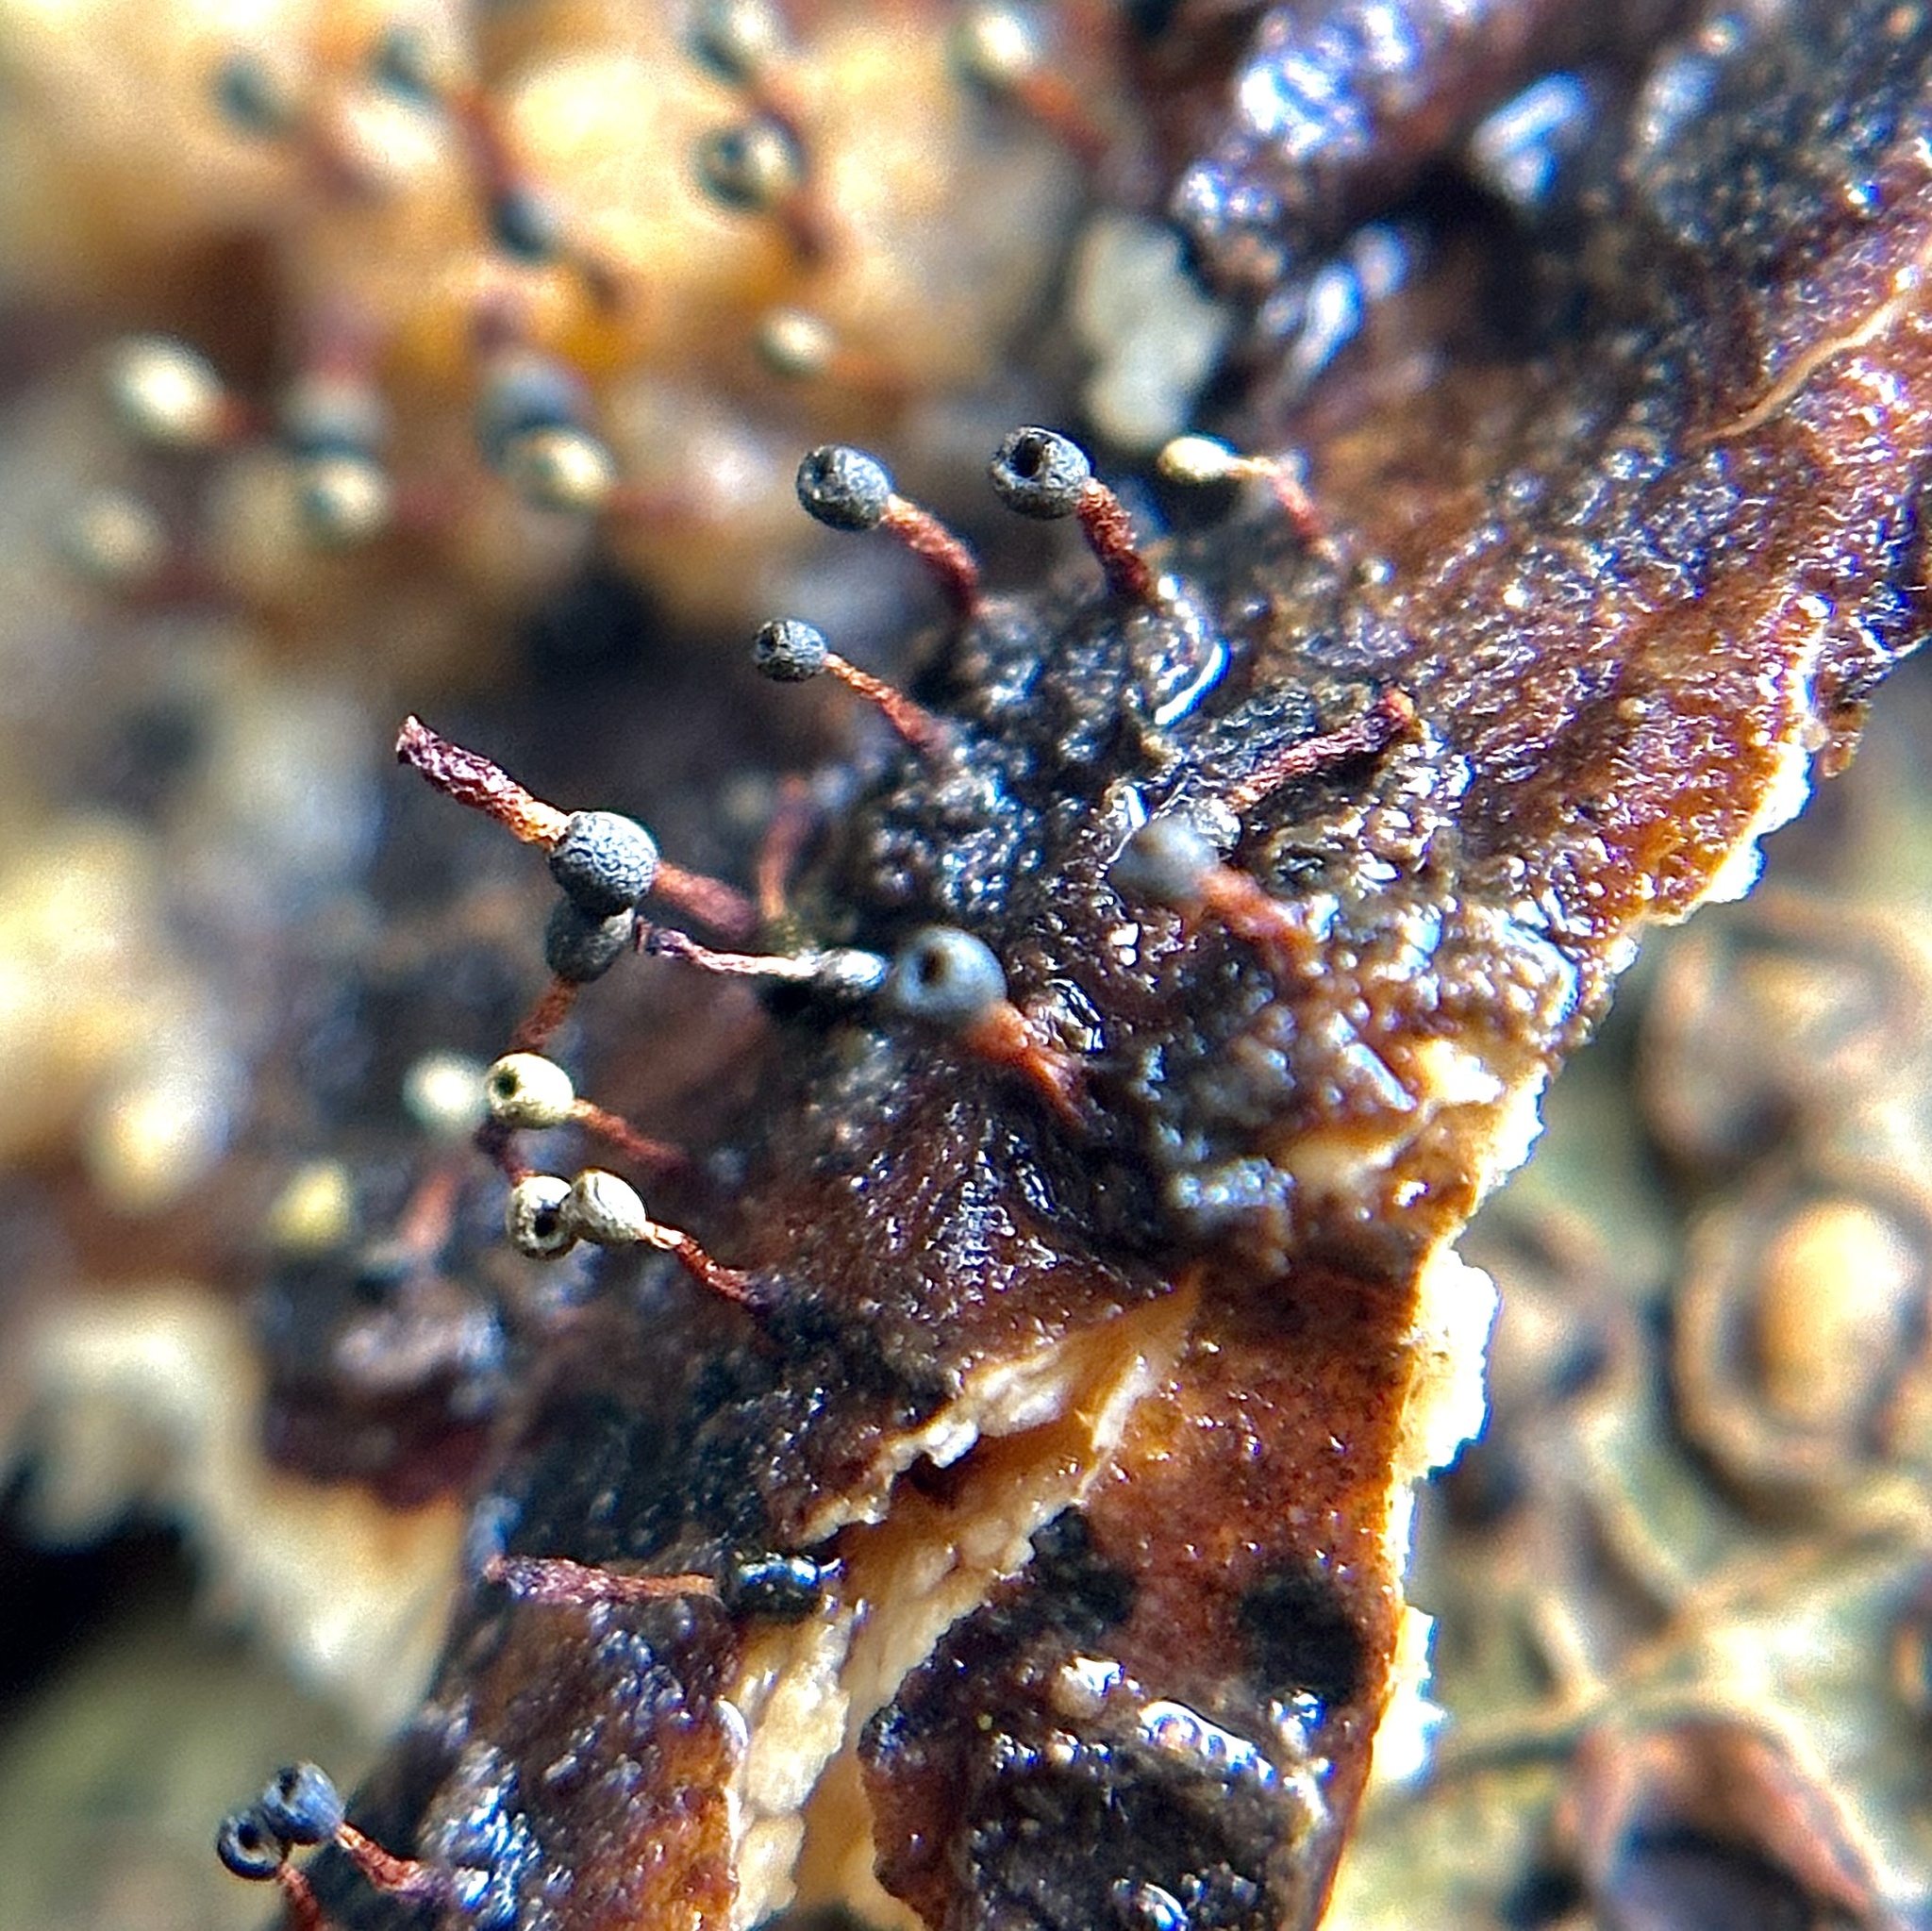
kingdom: Protozoa
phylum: Mycetozoa
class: Myxomycetes
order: Physarales
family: Physaraceae
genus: Physarella
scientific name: Physarella oblonga
